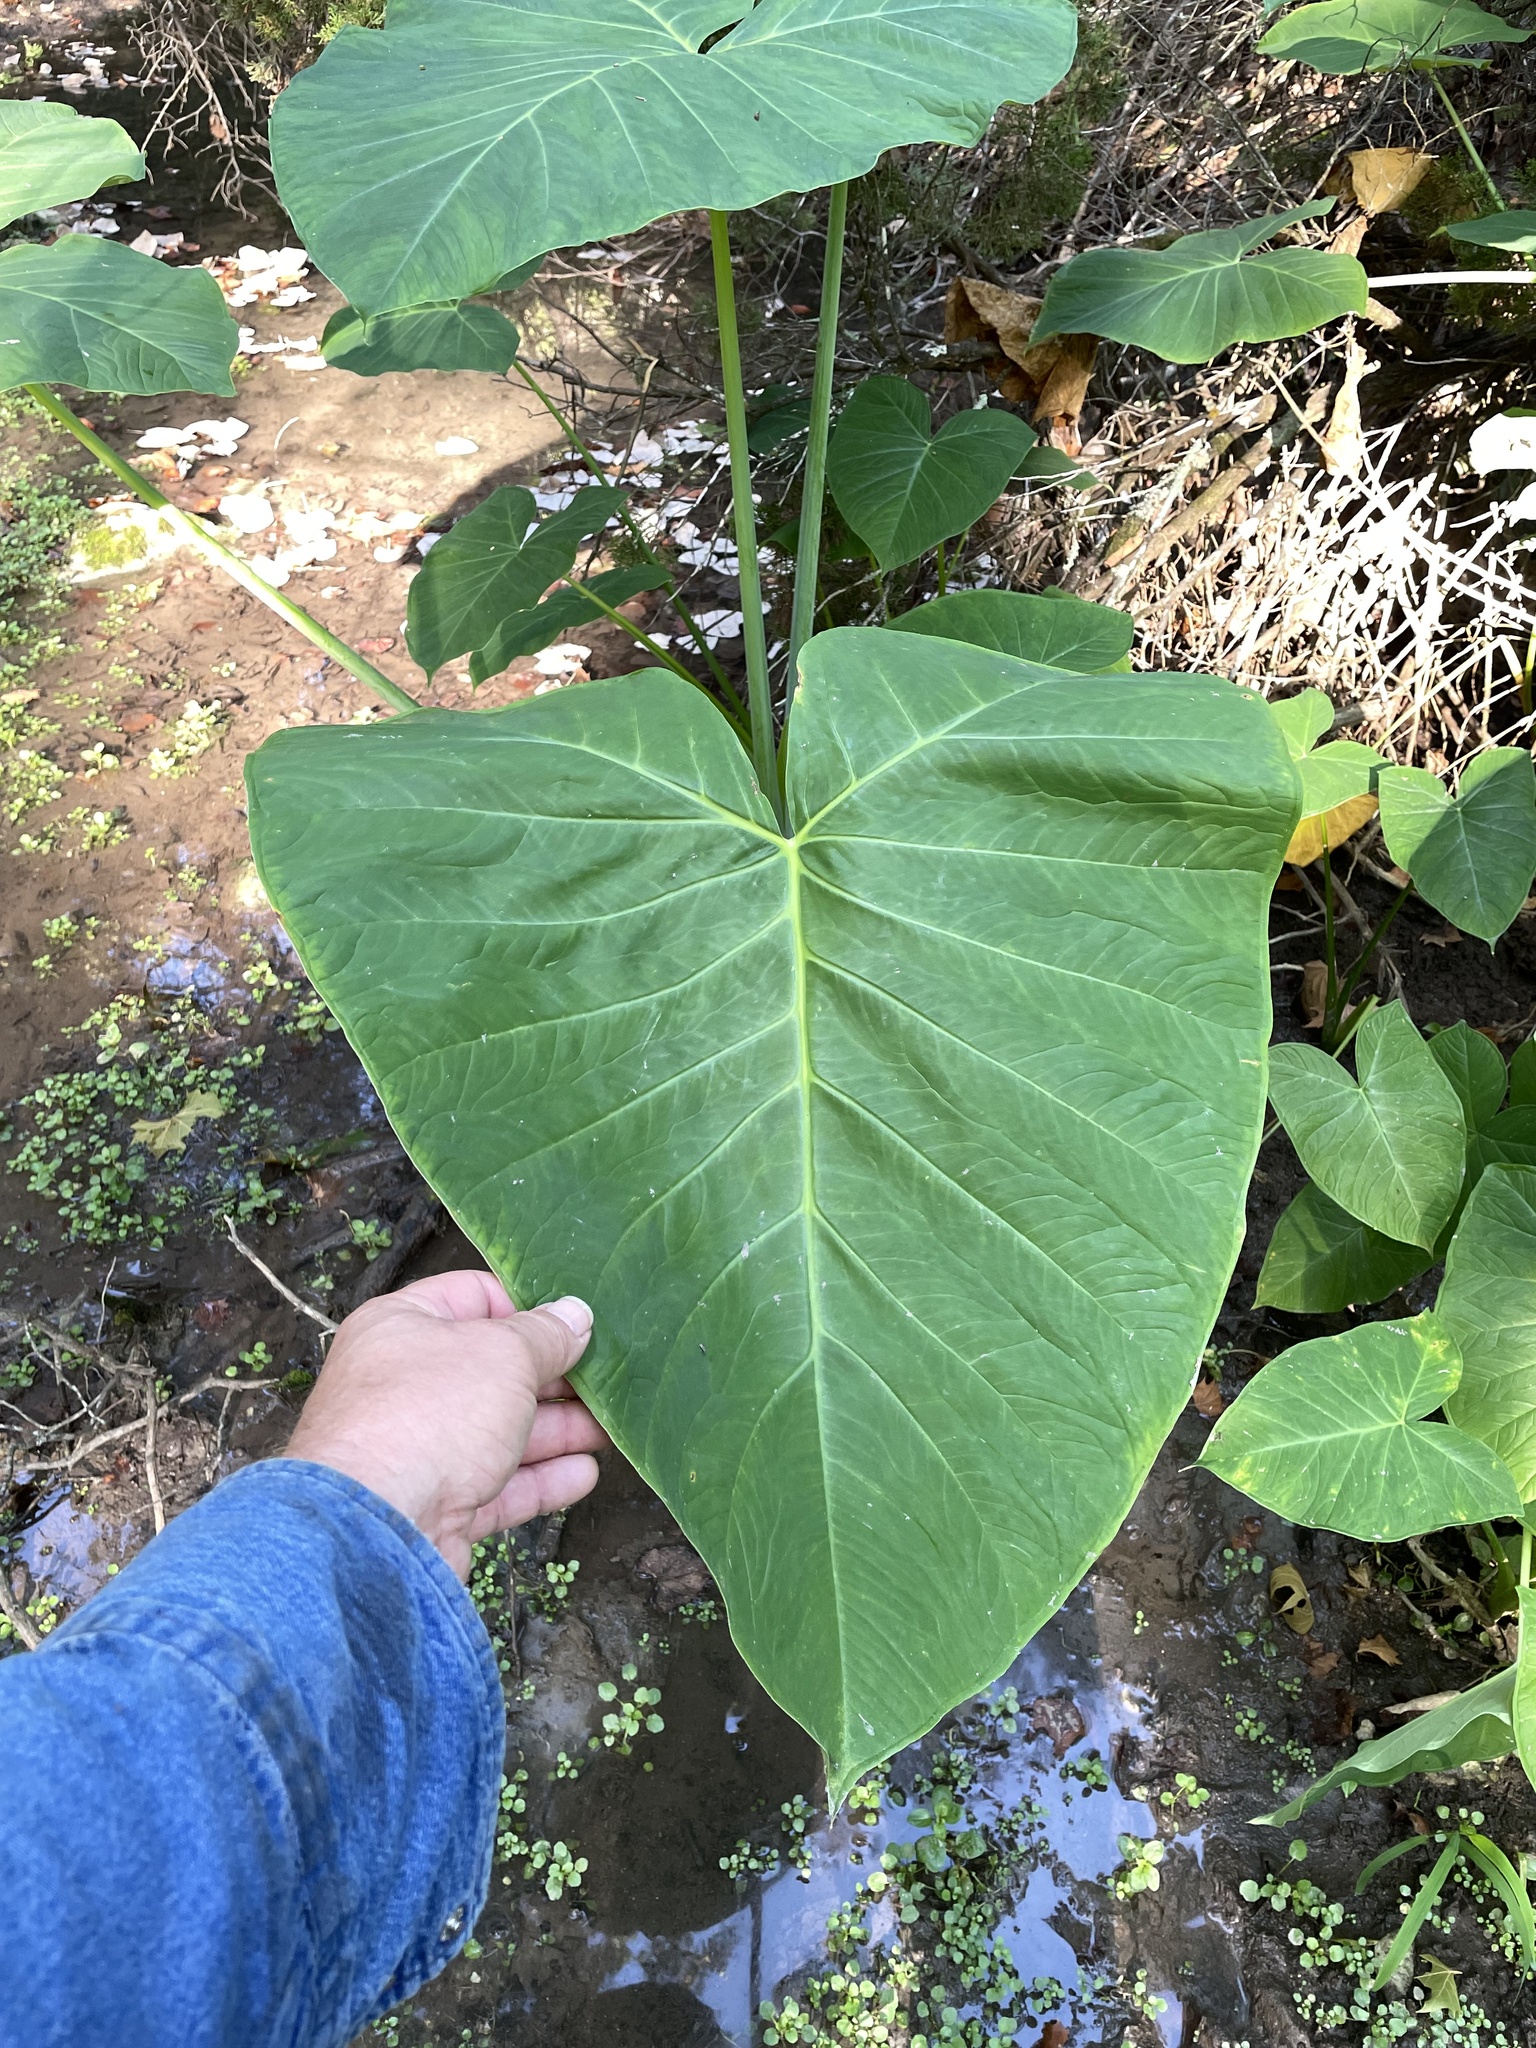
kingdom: Plantae
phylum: Tracheophyta
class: Liliopsida
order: Alismatales
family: Araceae
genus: Xanthosoma
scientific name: Xanthosoma sagittifolium
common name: Arrowleaf elephant's ear
